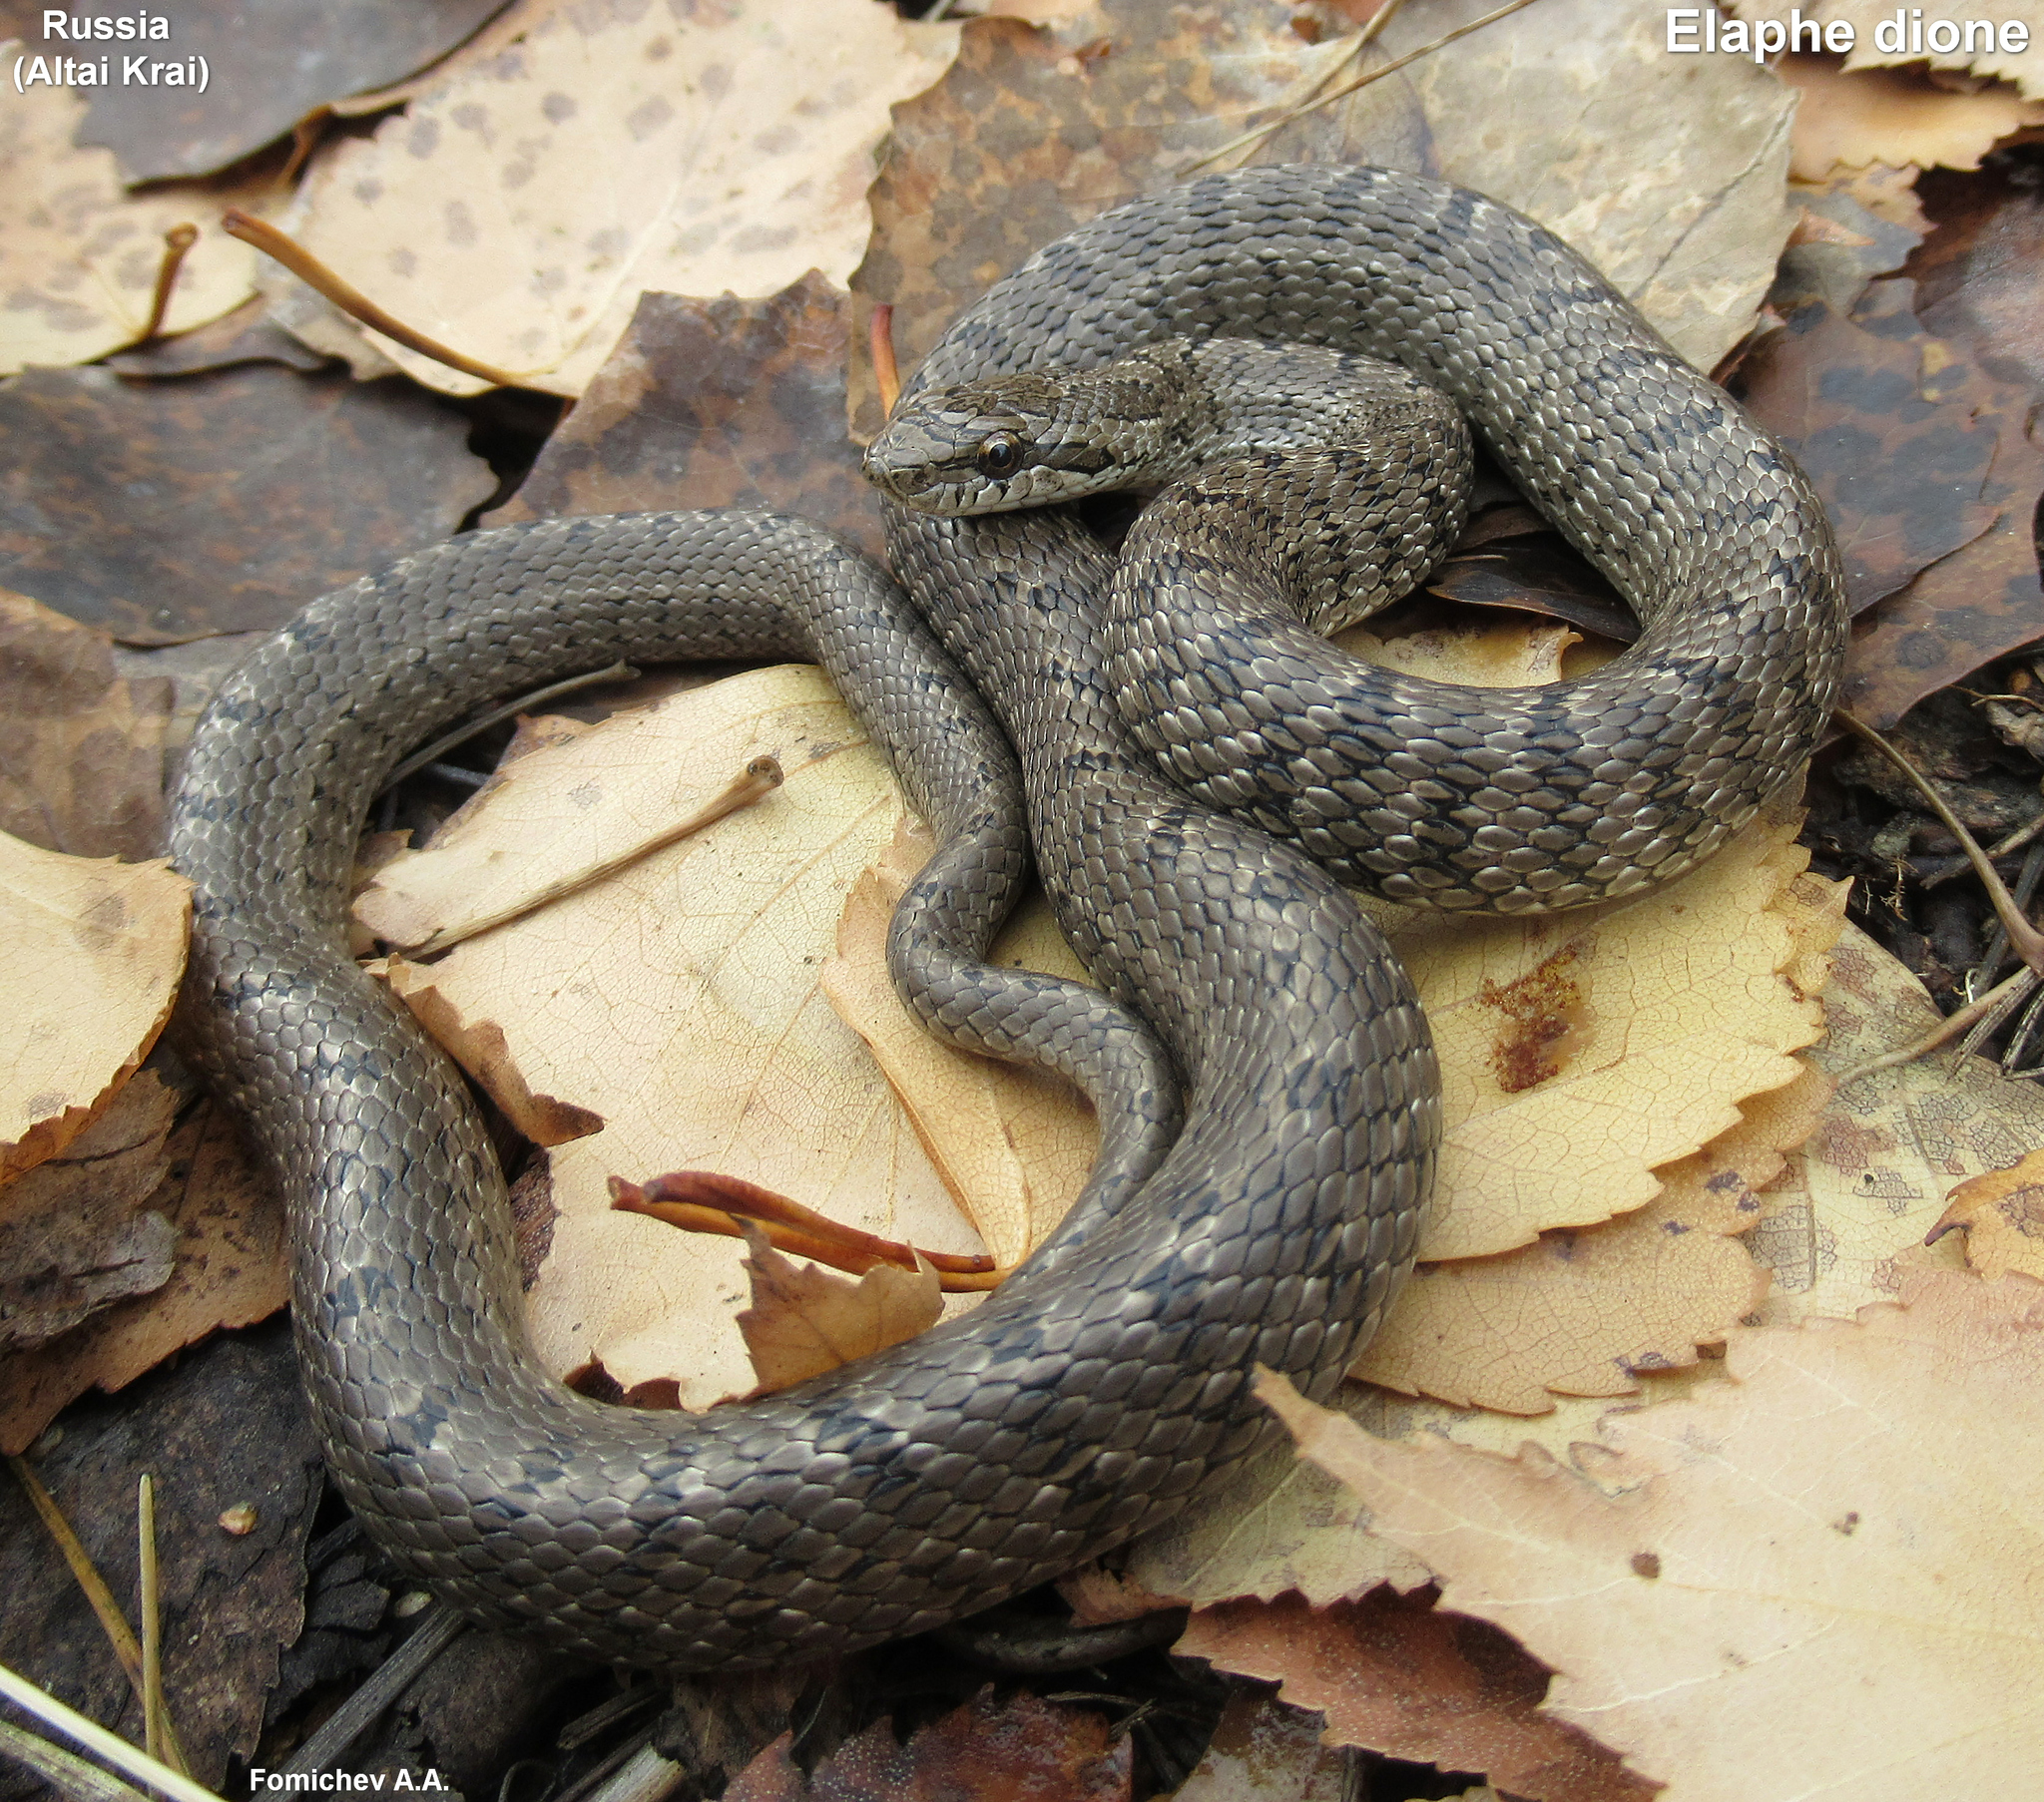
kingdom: Animalia
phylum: Chordata
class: Squamata
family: Colubridae
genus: Elaphe
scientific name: Elaphe dione
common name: Dione ratsnake
